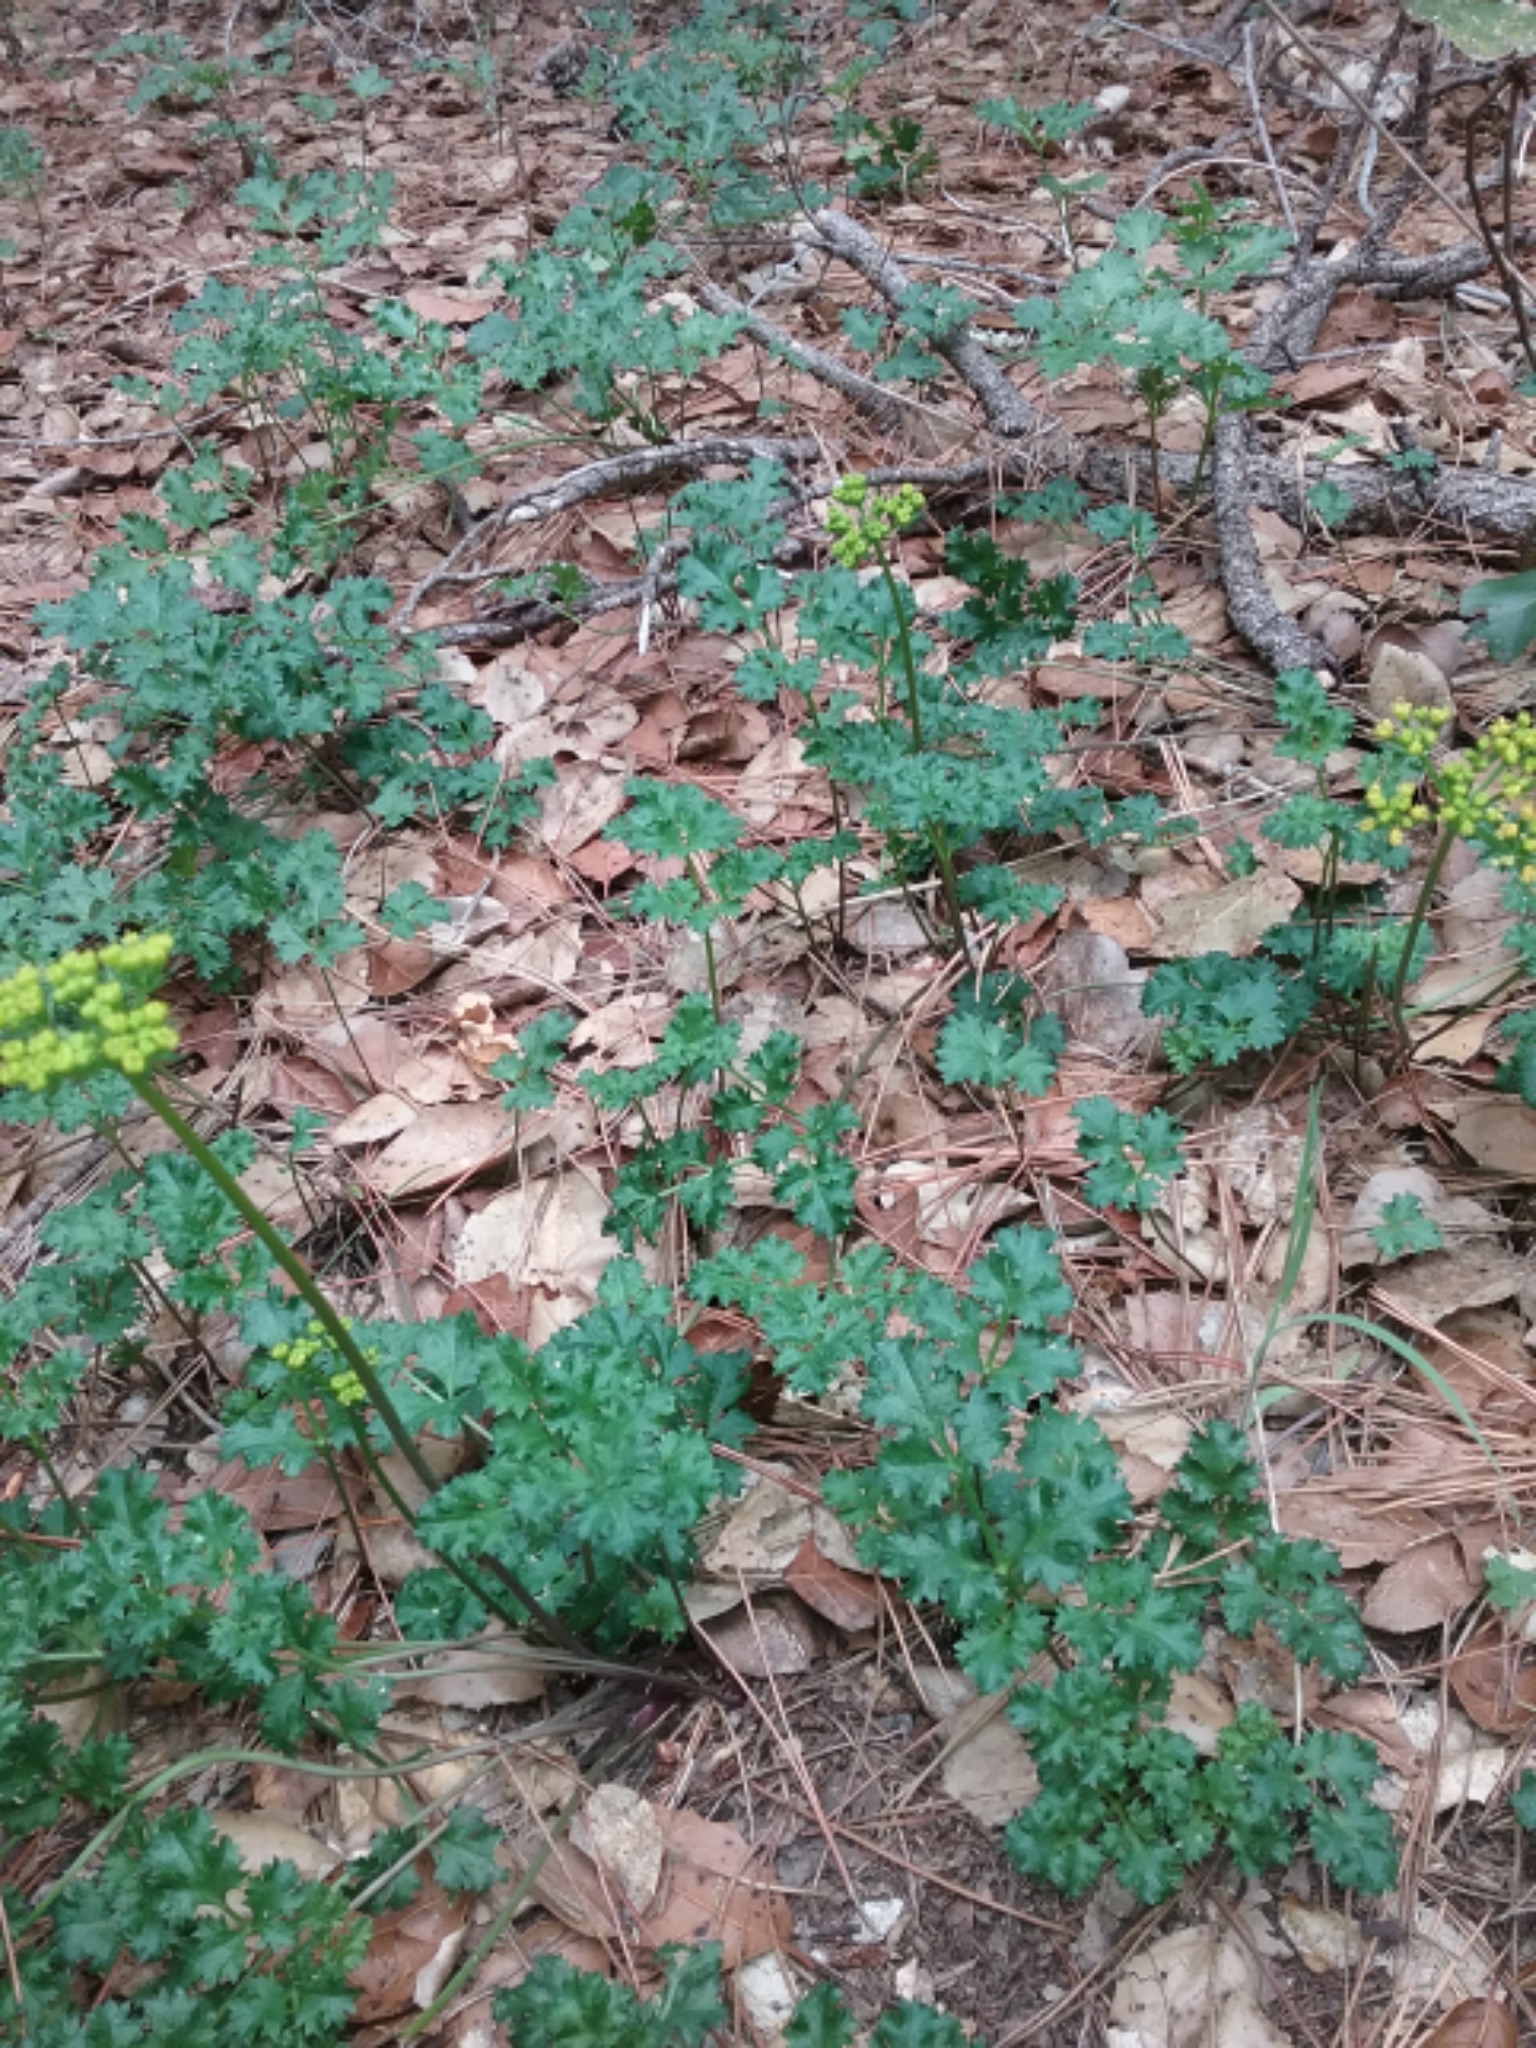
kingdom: Plantae
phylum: Tracheophyta
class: Magnoliopsida
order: Apiales
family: Apiaceae
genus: Lomatium
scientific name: Lomatium parvifolium
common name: Small-leaf lomatium
